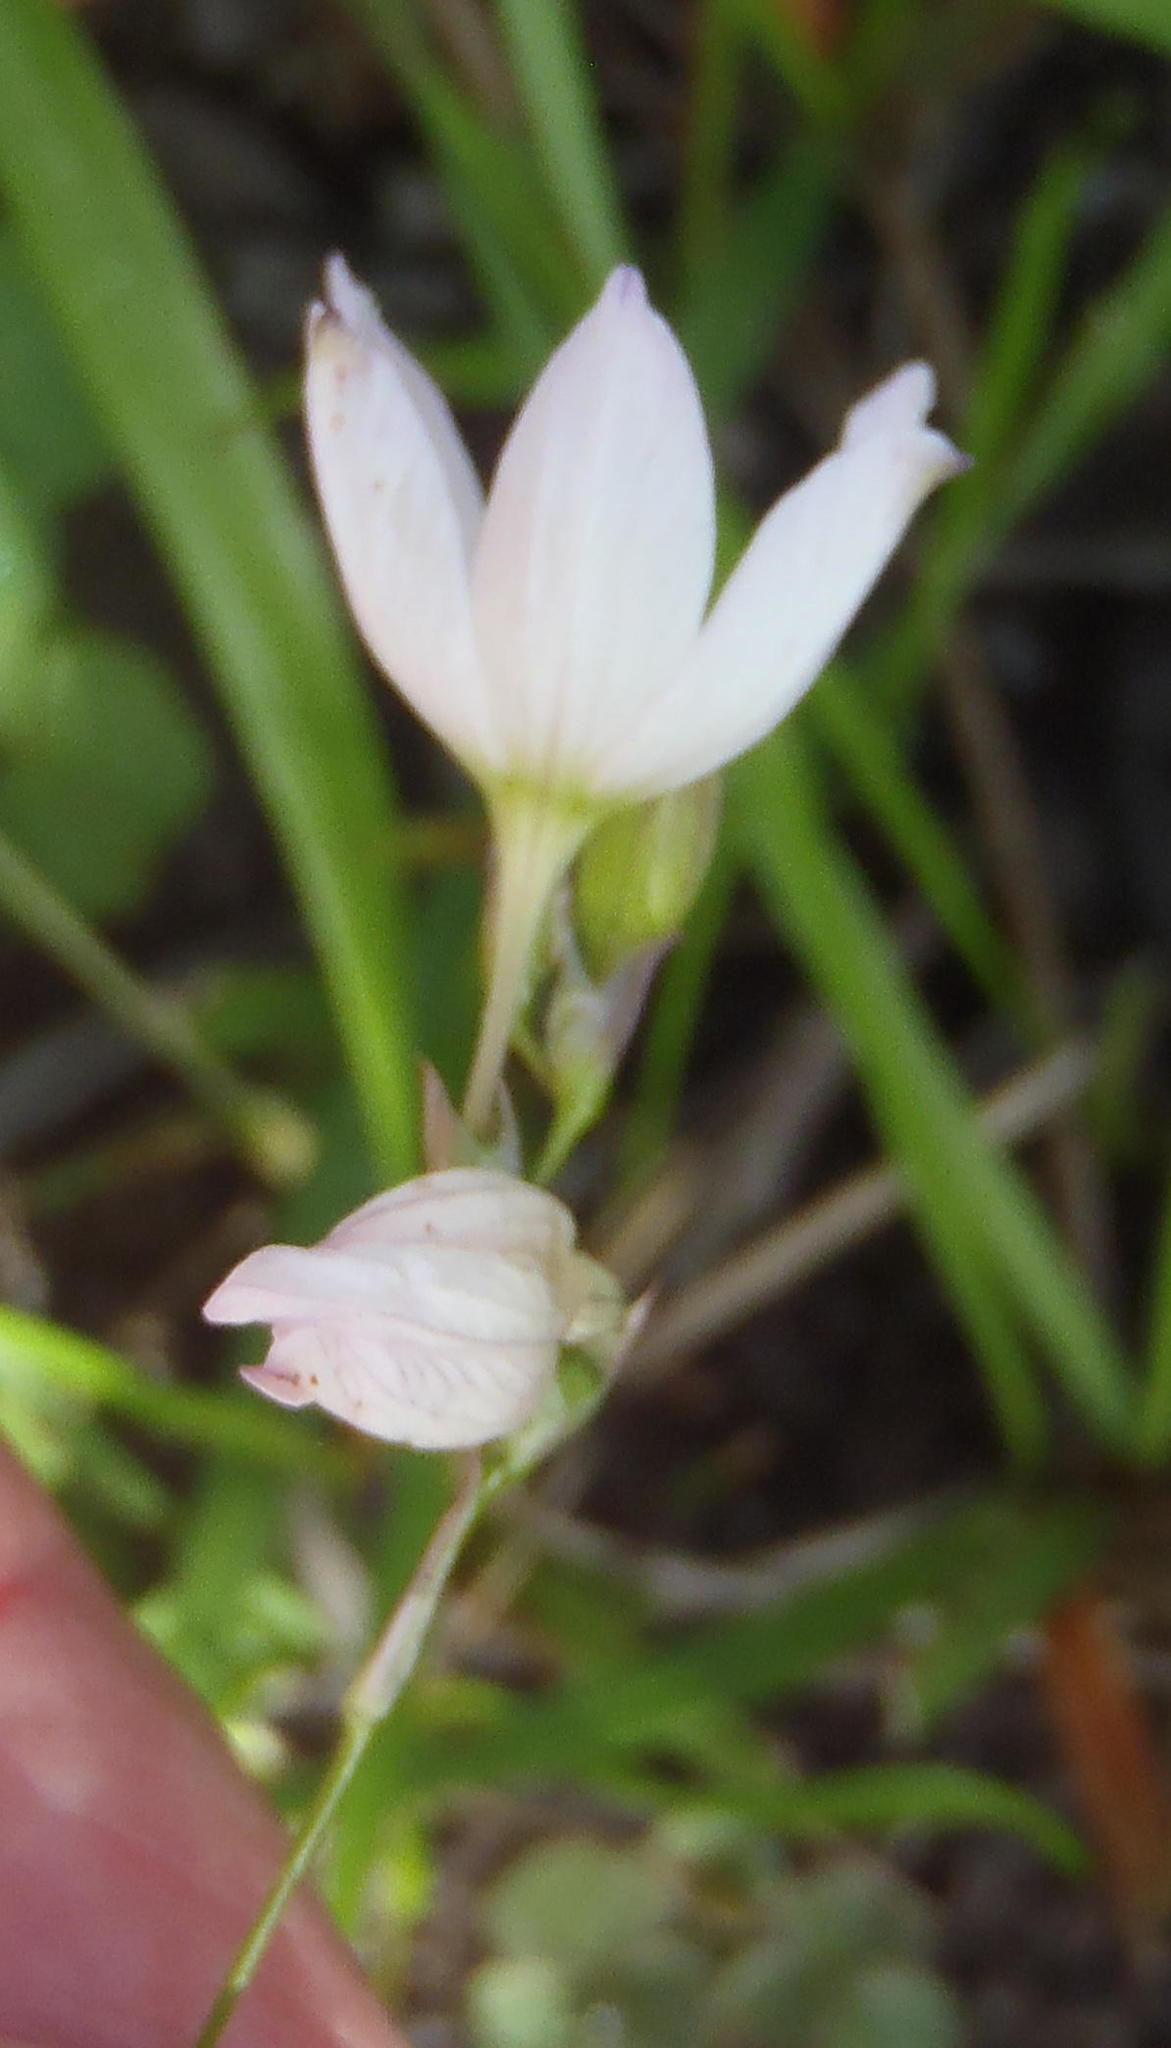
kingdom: Plantae
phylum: Tracheophyta
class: Liliopsida
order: Asparagales
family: Iridaceae
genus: Ixia
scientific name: Ixia orientalis
